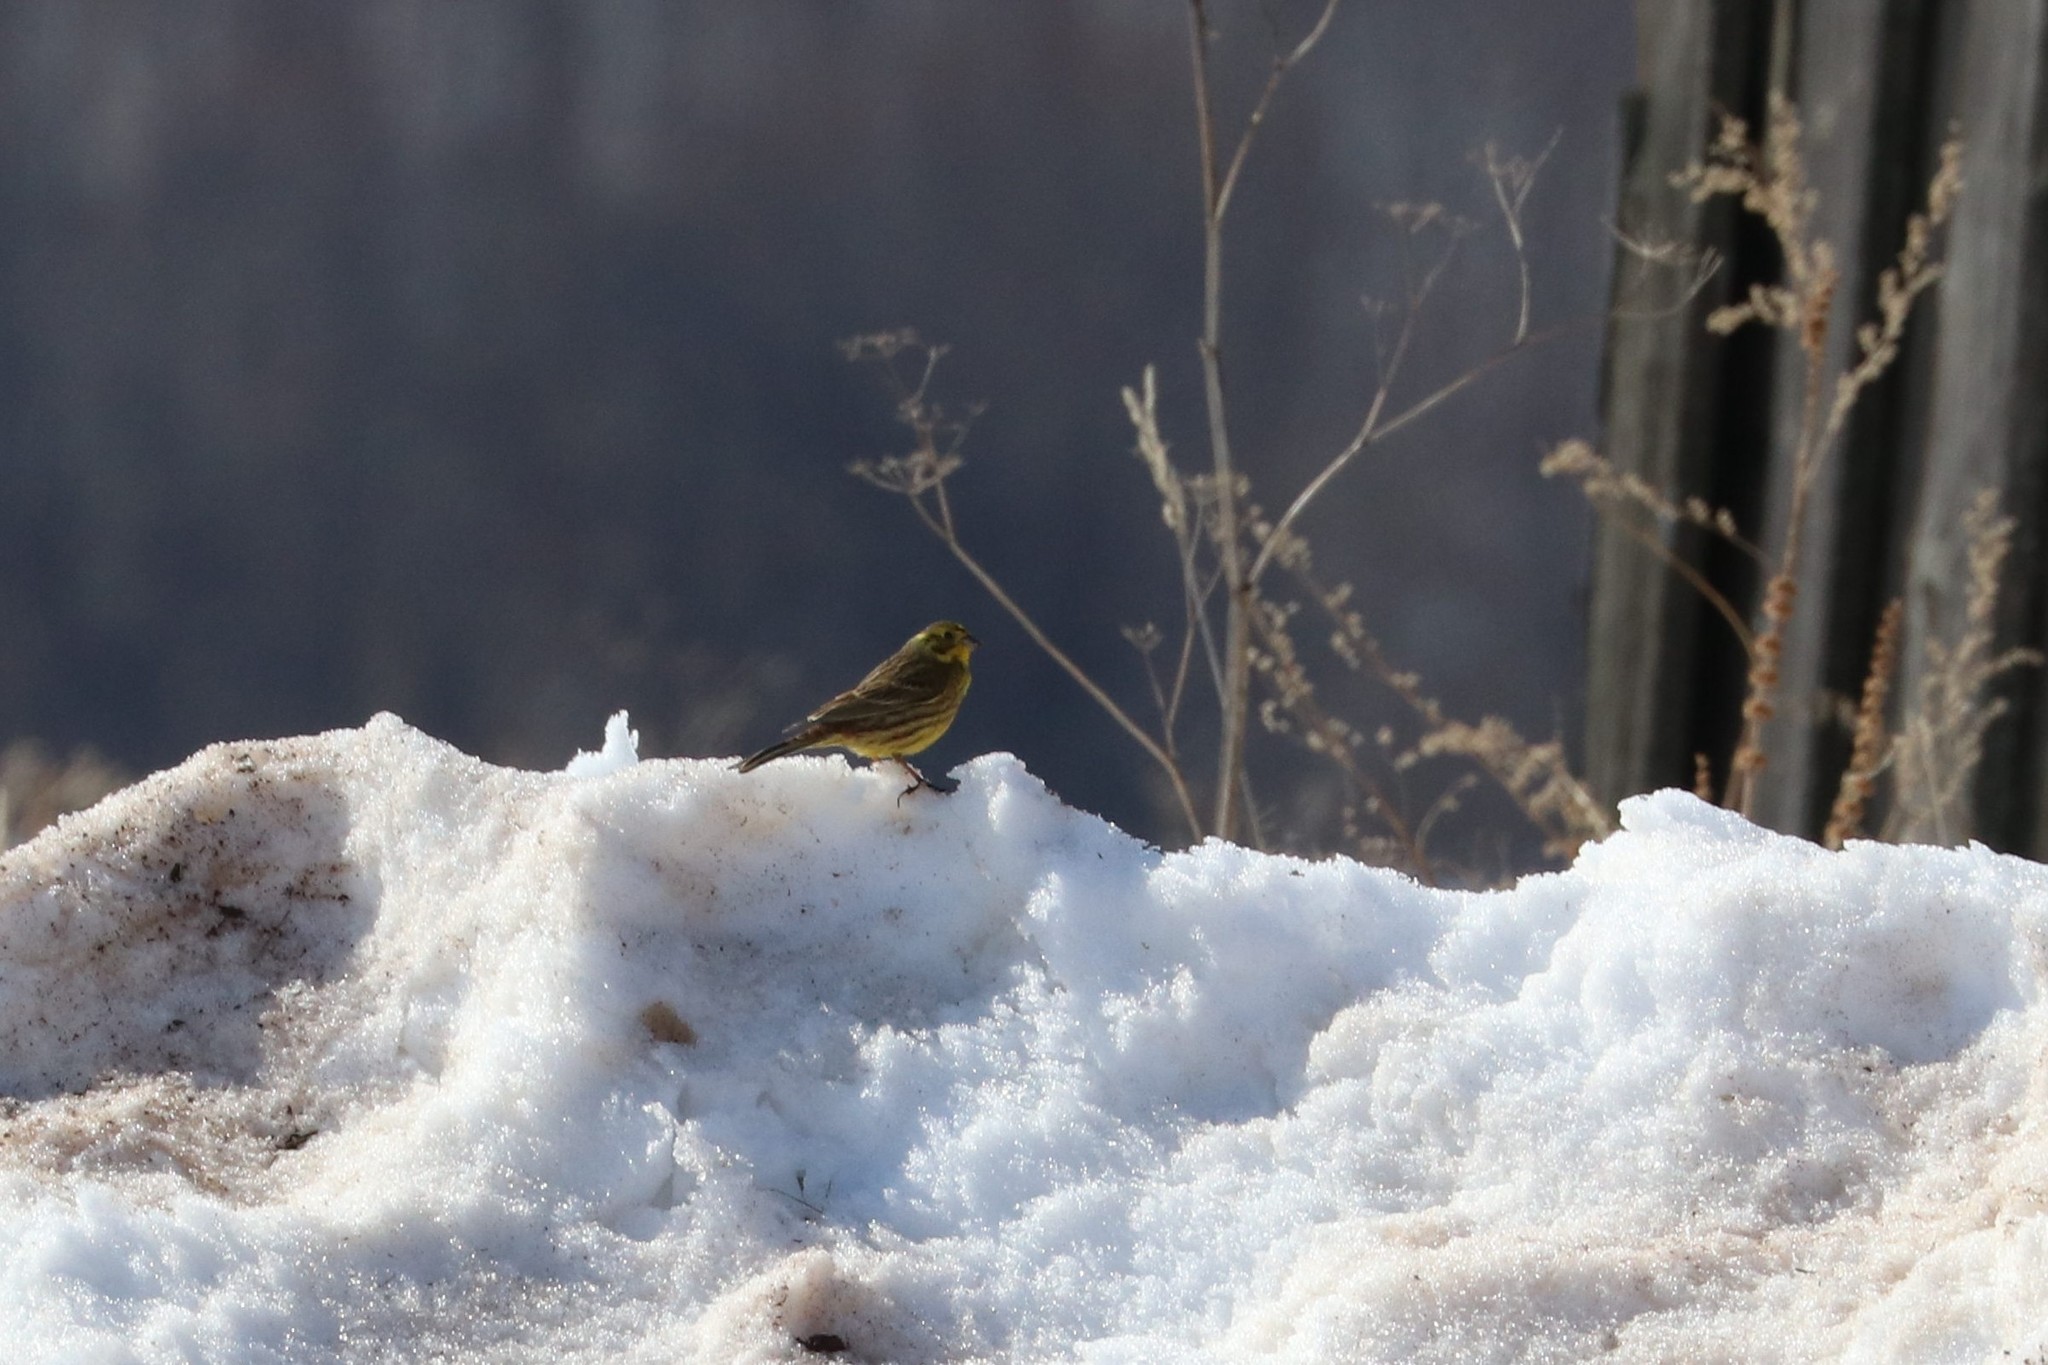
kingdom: Animalia
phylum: Chordata
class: Aves
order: Passeriformes
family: Emberizidae
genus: Emberiza
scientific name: Emberiza citrinella
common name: Yellowhammer
